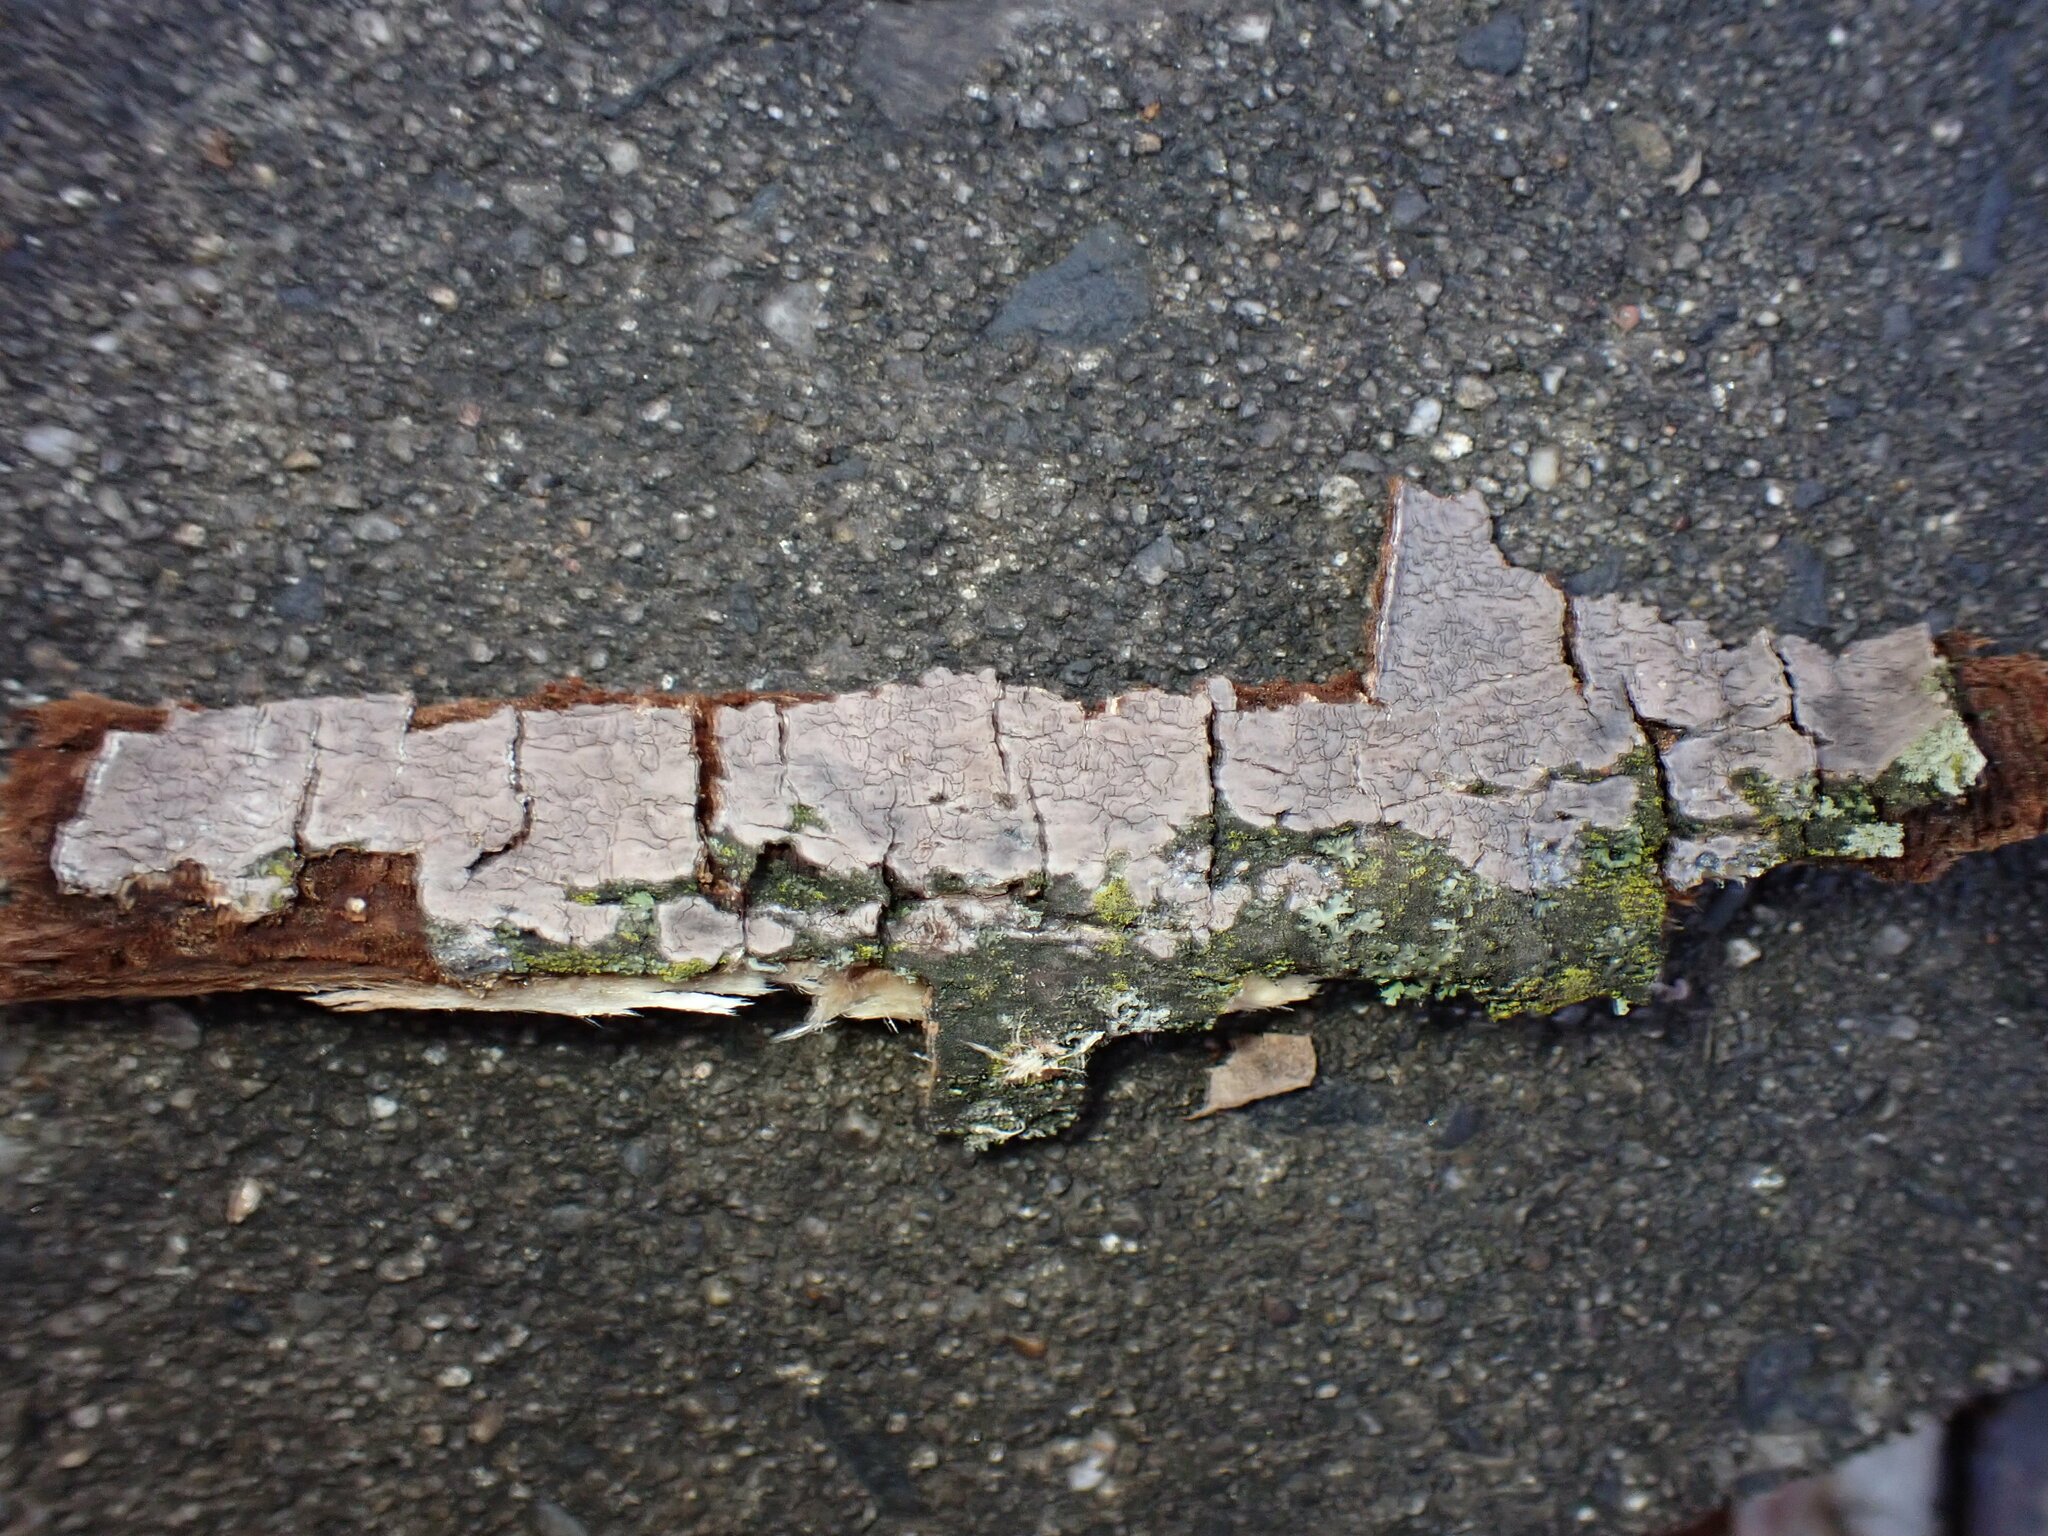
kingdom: Fungi
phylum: Basidiomycota
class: Agaricomycetes
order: Russulales
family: Peniophoraceae
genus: Peniophora
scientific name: Peniophora cinerea
